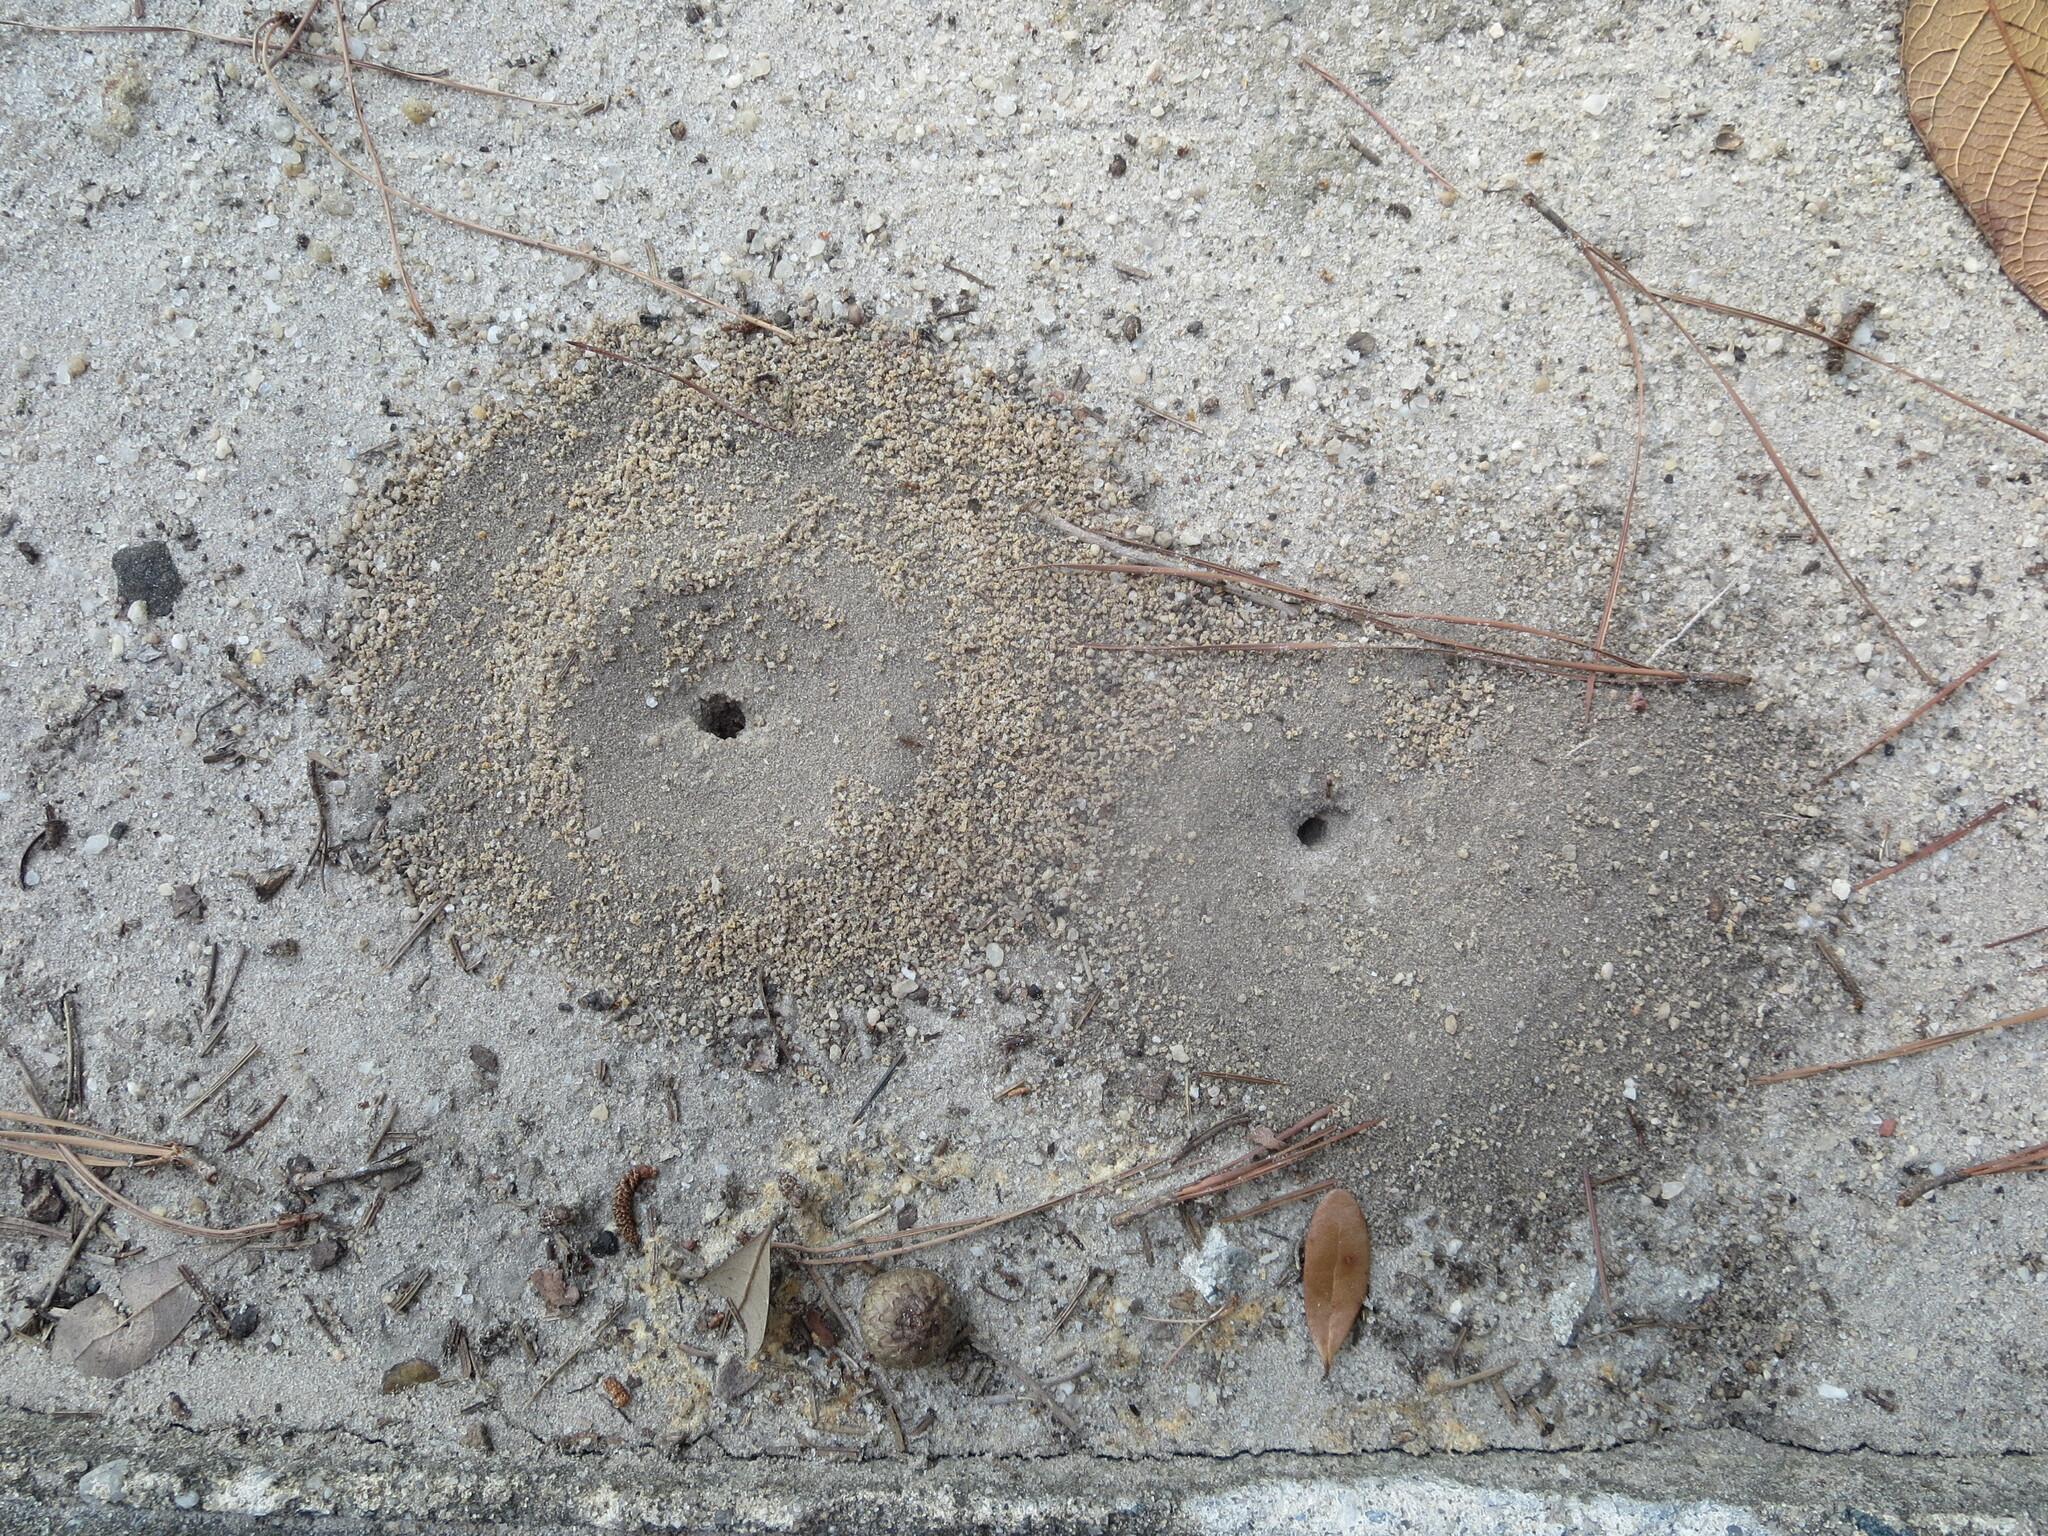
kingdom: Animalia
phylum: Arthropoda
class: Insecta
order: Hymenoptera
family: Formicidae
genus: Dorymyrmex
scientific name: Dorymyrmex bureni
